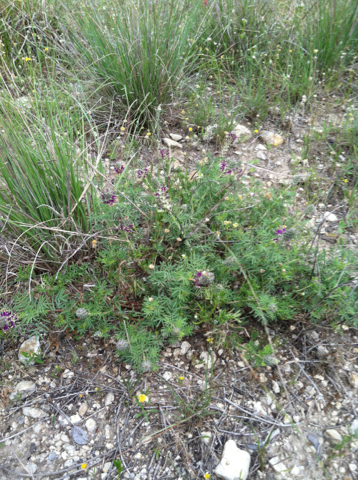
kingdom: Plantae
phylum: Tracheophyta
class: Magnoliopsida
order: Fabales
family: Fabaceae
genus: Dalea
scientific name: Dalea reverchonii
